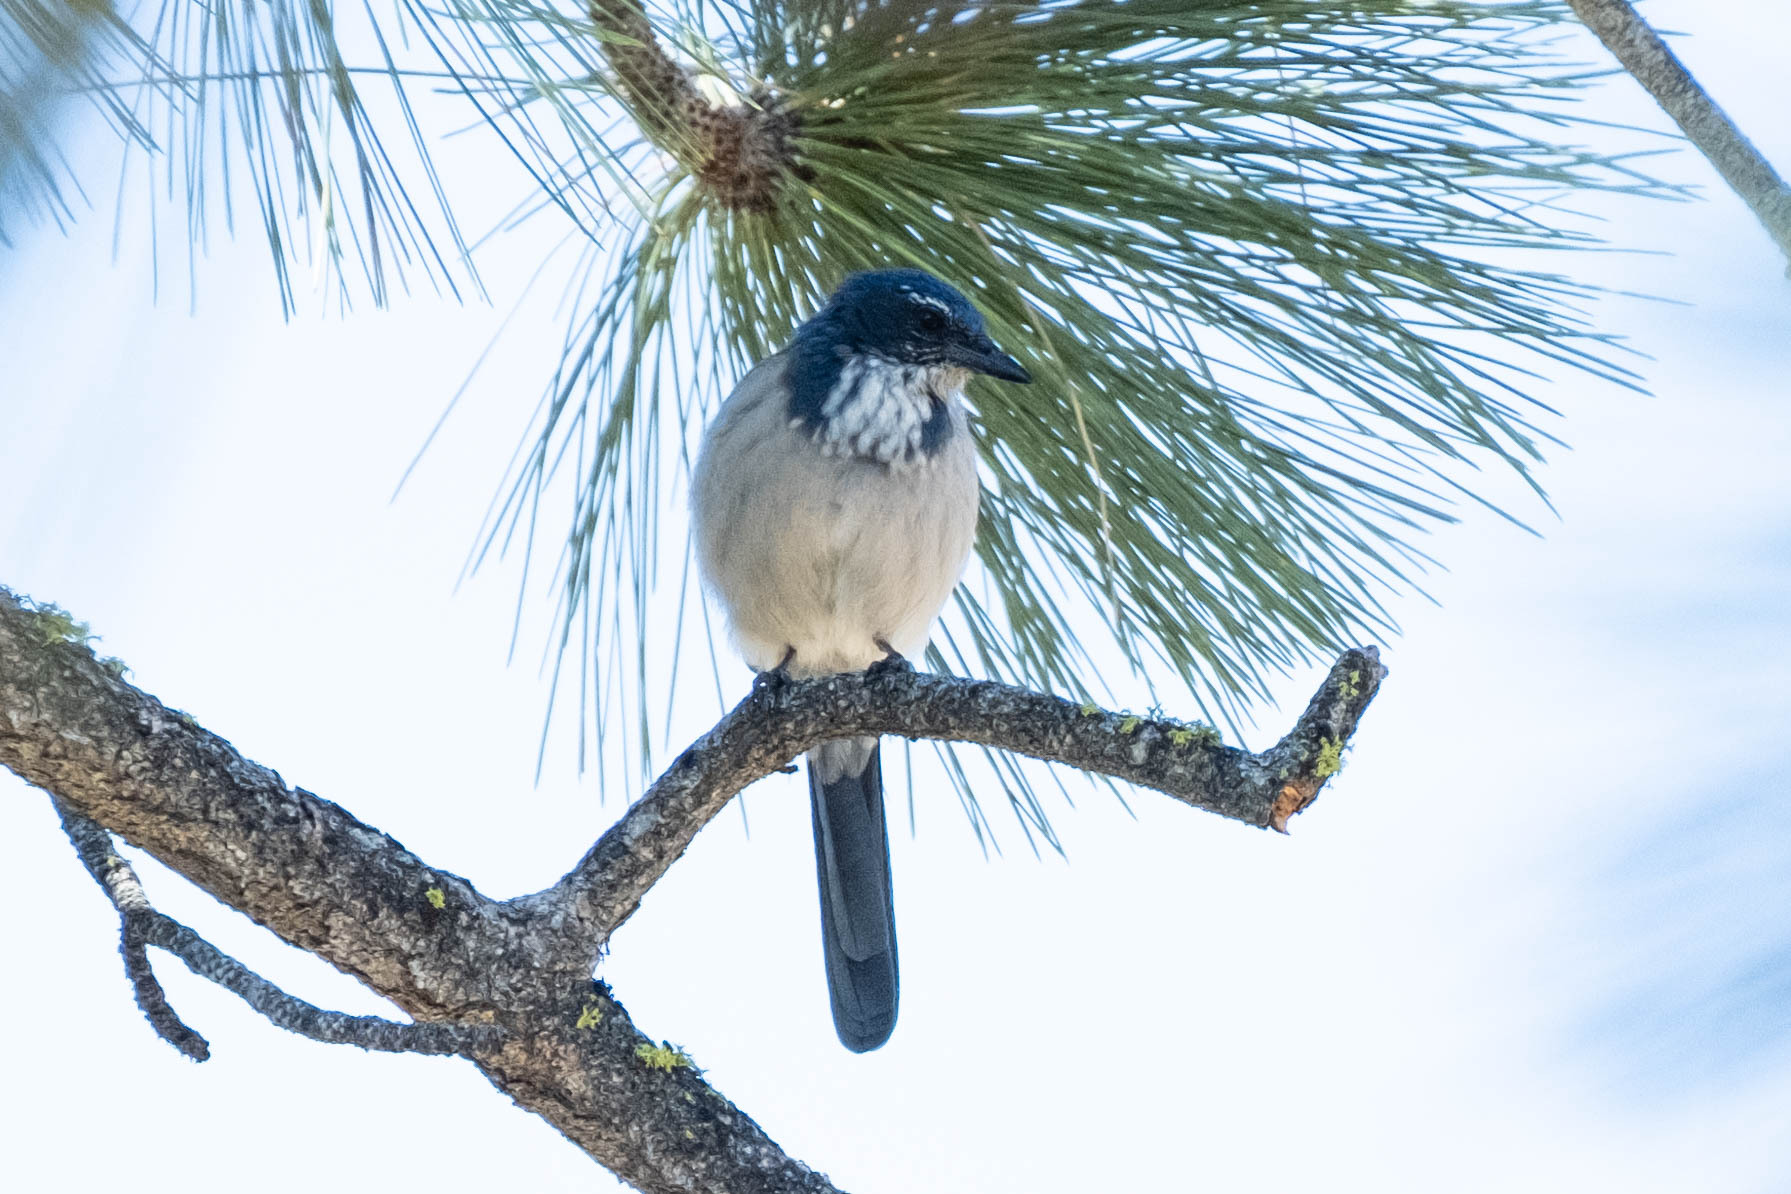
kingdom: Animalia
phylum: Chordata
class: Aves
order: Passeriformes
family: Corvidae
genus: Aphelocoma
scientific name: Aphelocoma californica
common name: California scrub-jay
